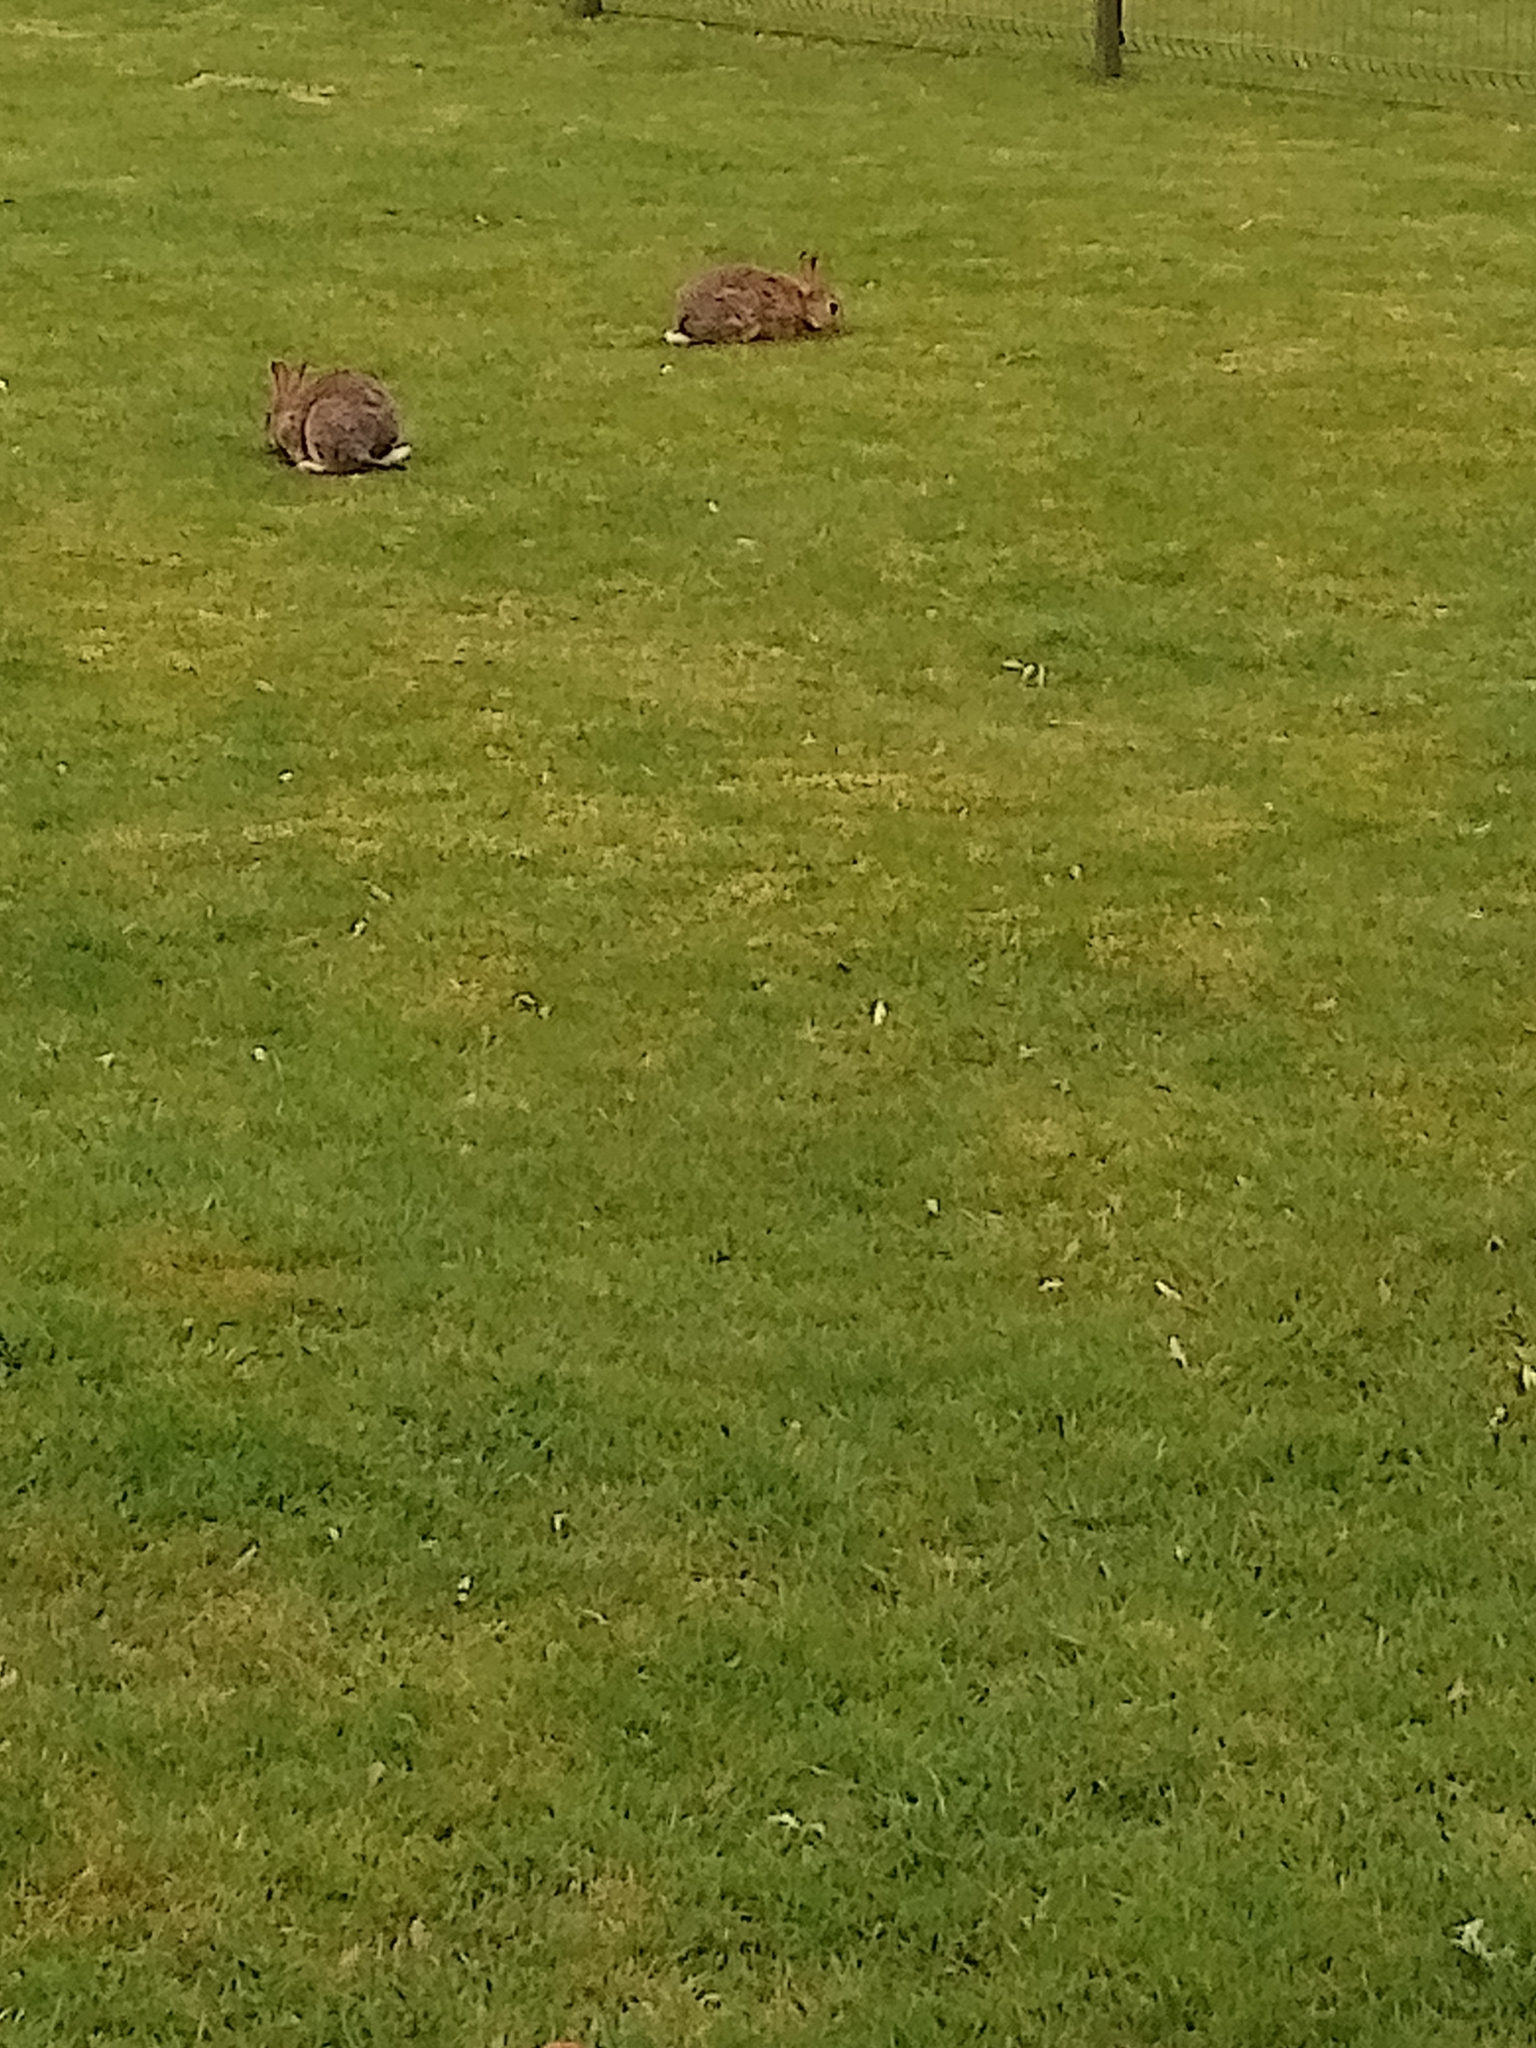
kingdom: Animalia
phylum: Chordata
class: Mammalia
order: Lagomorpha
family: Leporidae
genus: Oryctolagus
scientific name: Oryctolagus cuniculus
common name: European rabbit
